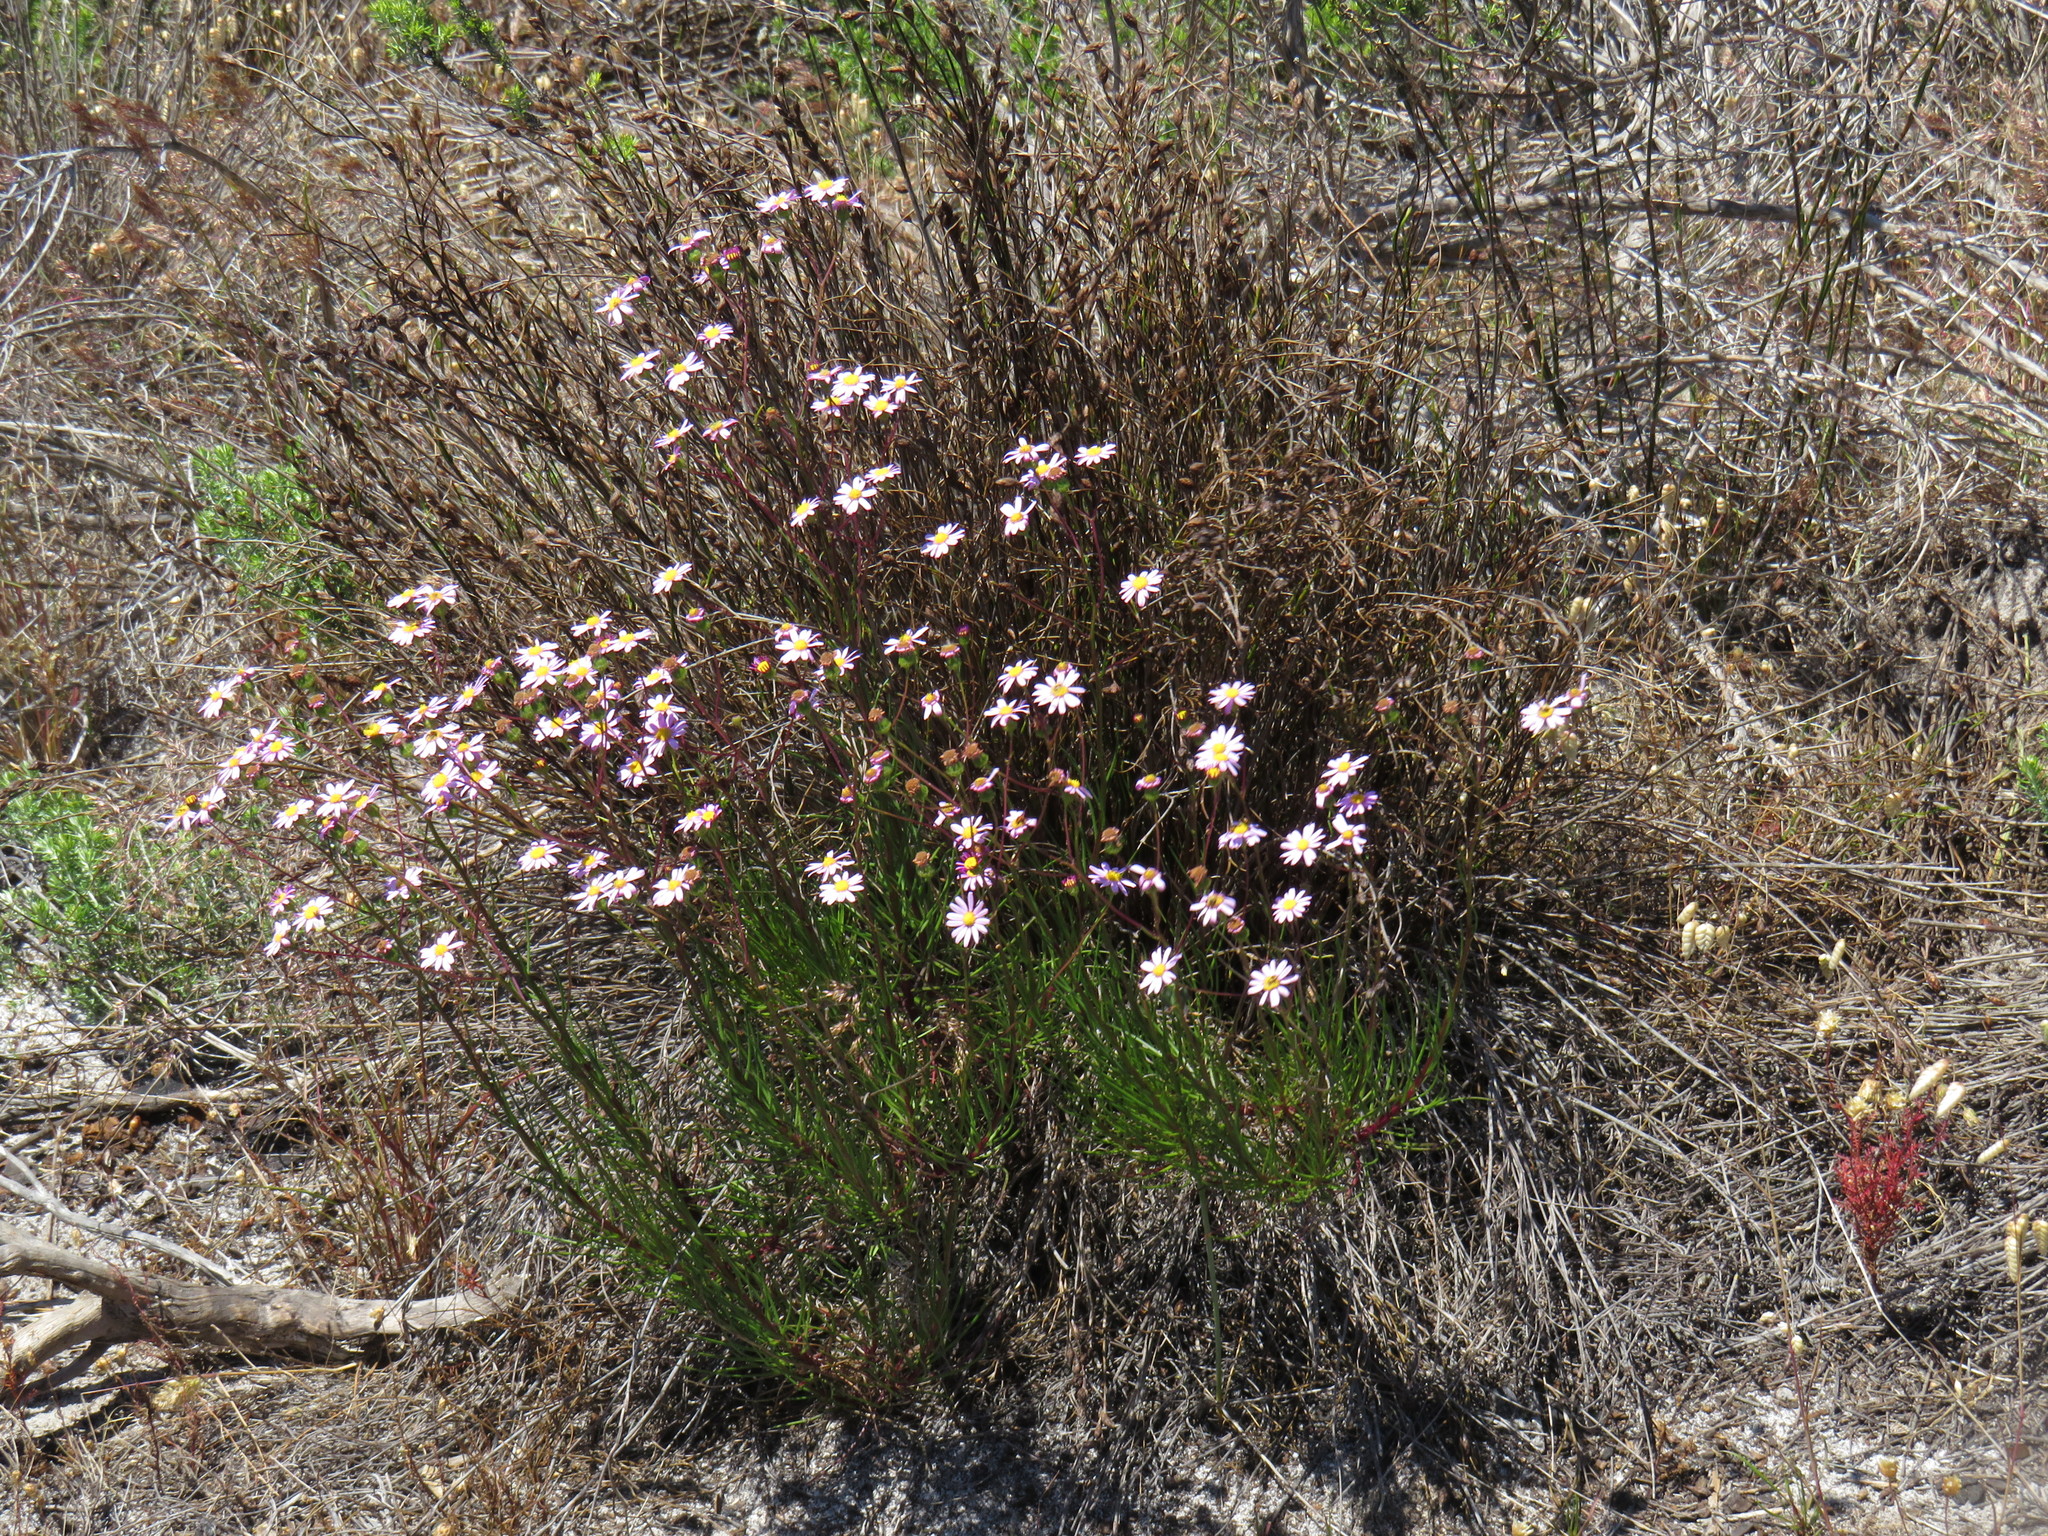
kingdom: Plantae
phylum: Tracheophyta
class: Magnoliopsida
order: Asterales
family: Asteraceae
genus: Senecio
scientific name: Senecio umbellatus
